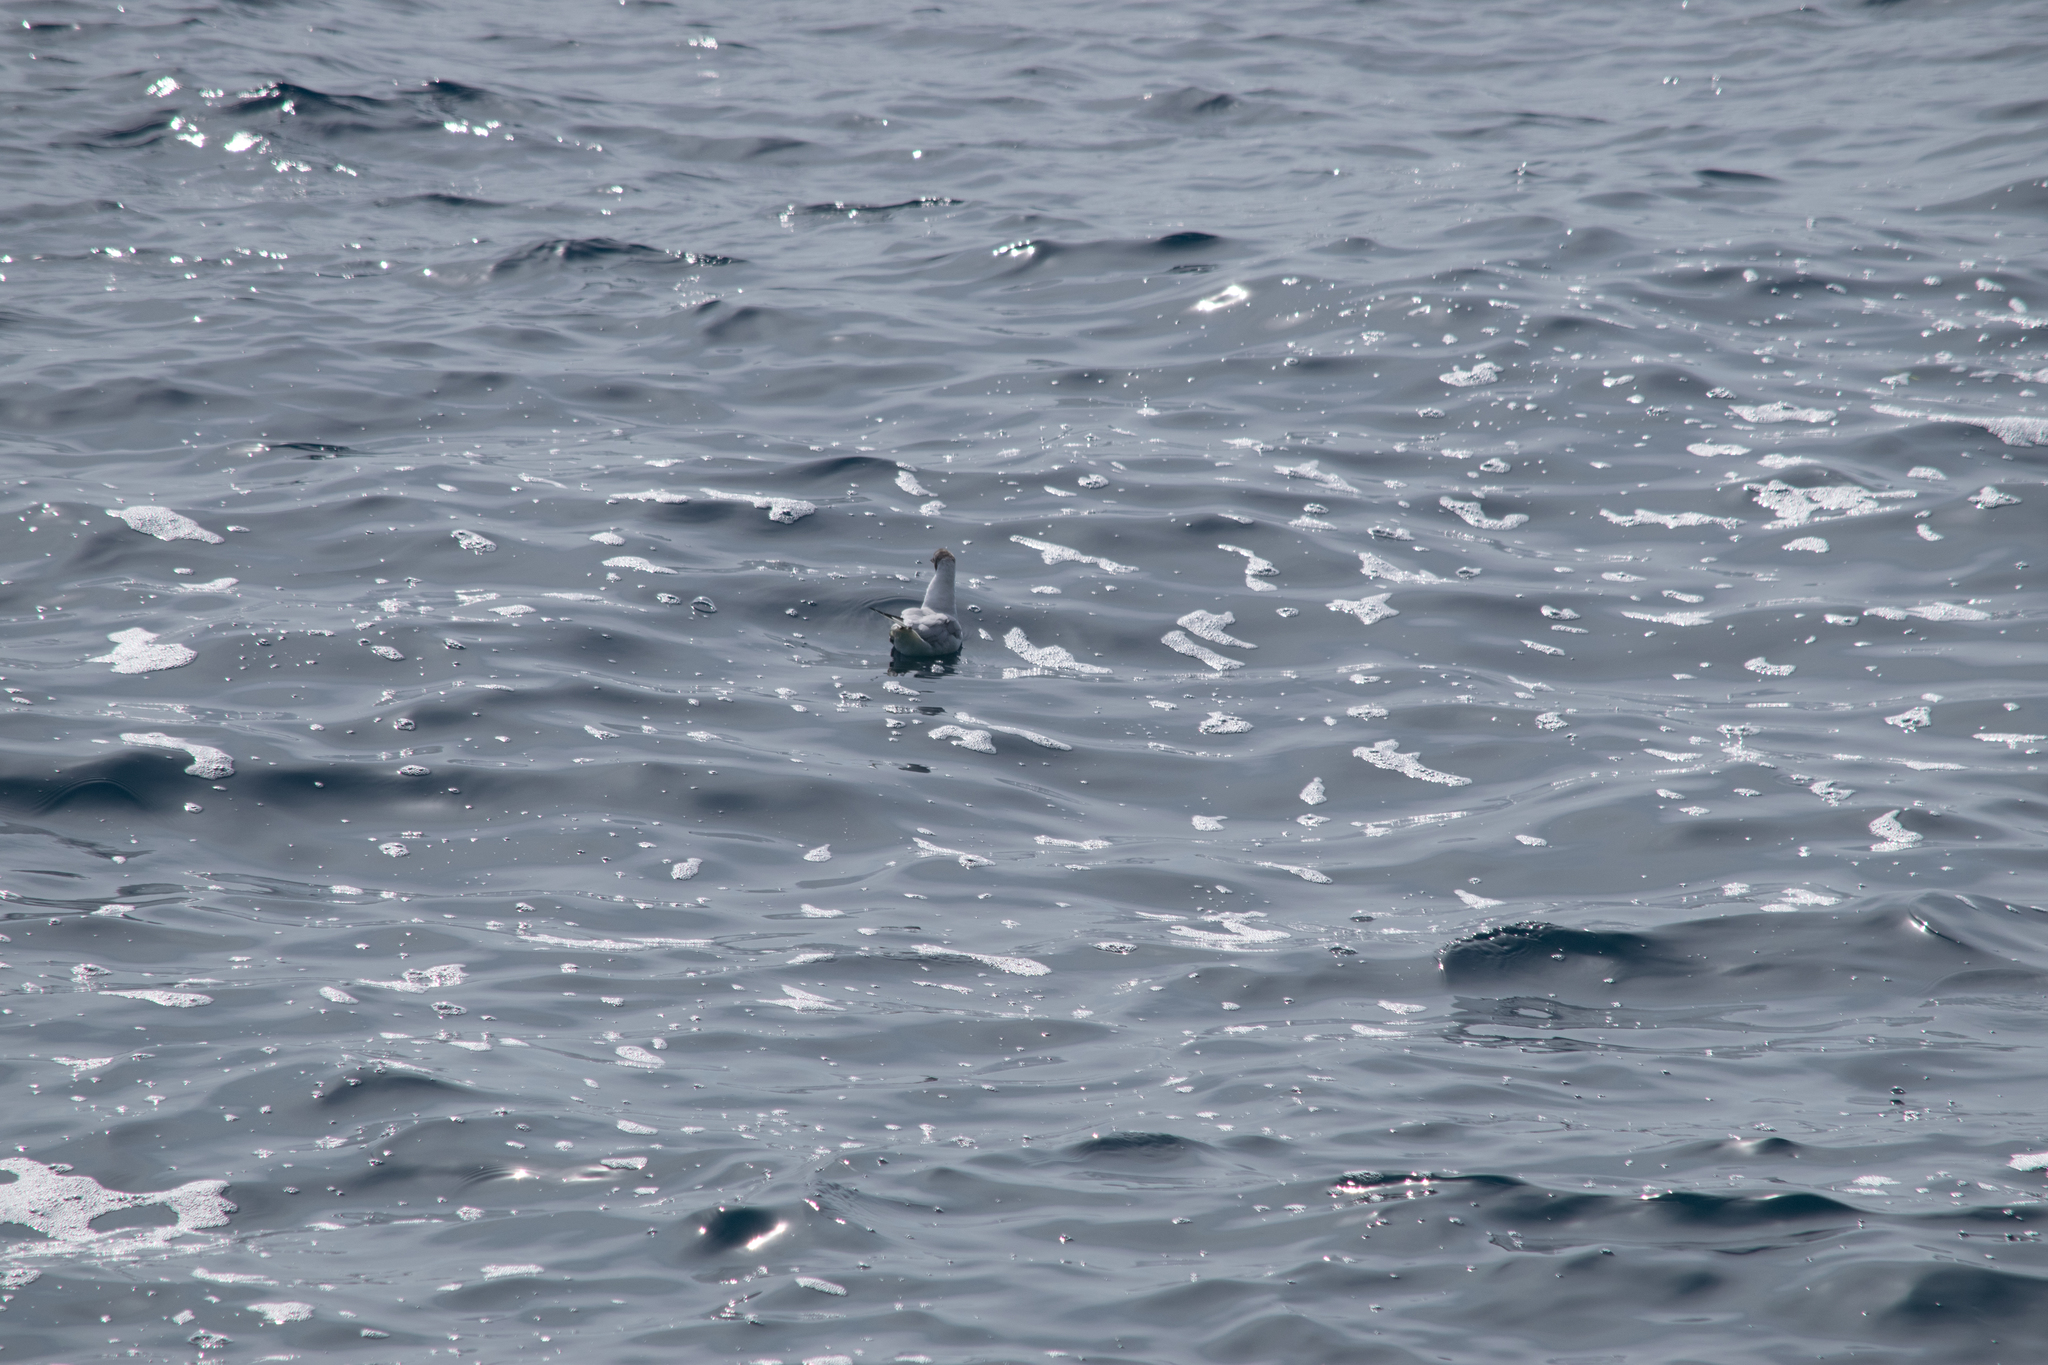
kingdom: Animalia
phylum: Chordata
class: Aves
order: Charadriiformes
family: Laridae
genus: Chroicocephalus
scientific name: Chroicocephalus ridibundus
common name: Black-headed gull
